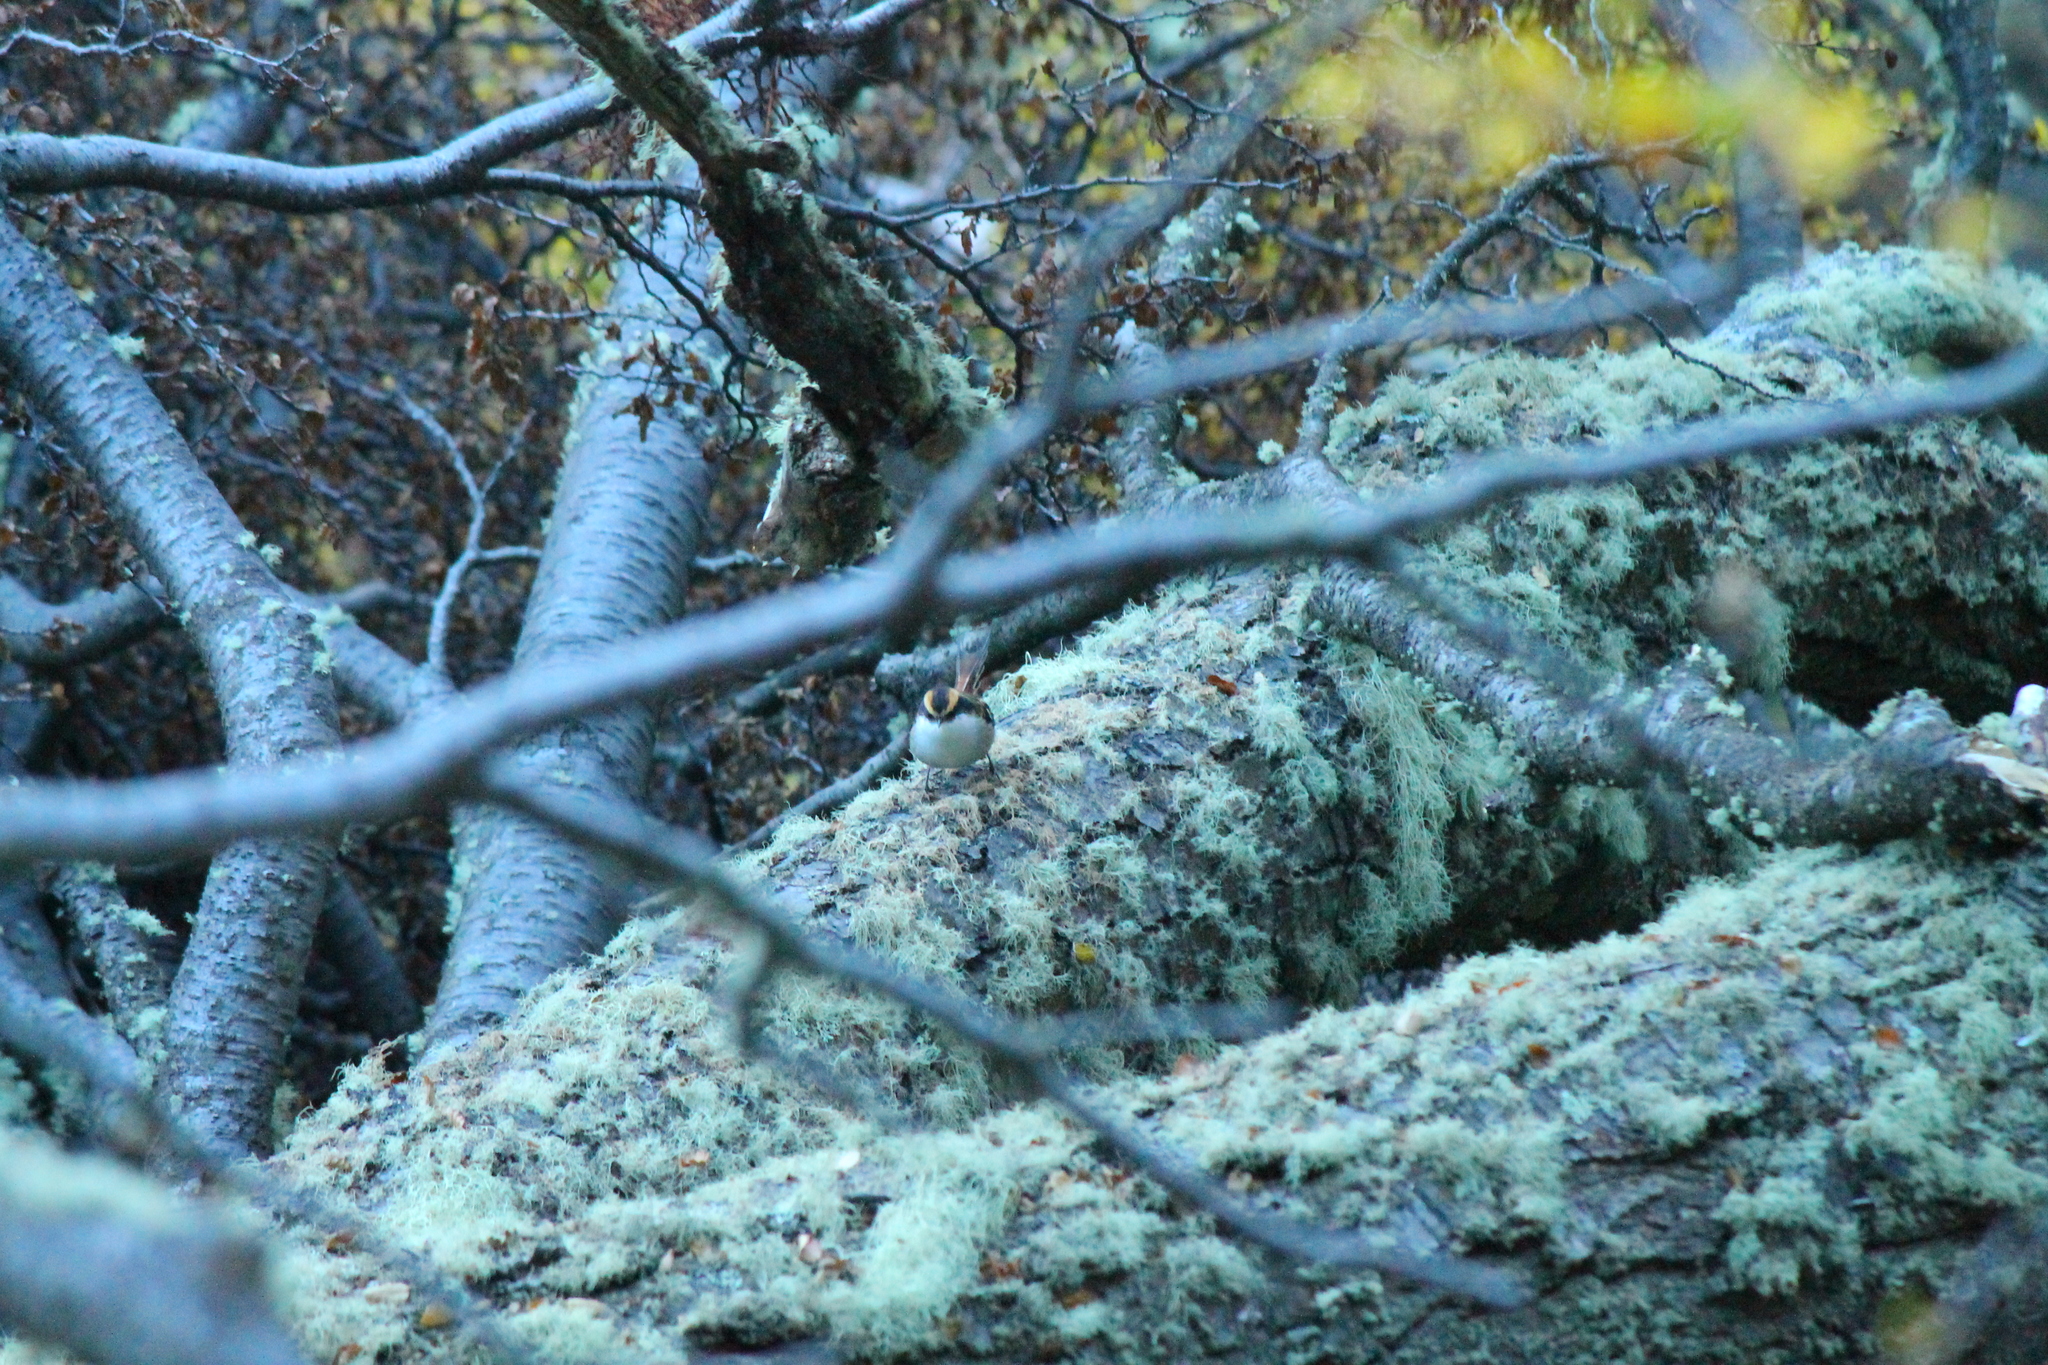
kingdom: Animalia
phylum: Chordata
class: Aves
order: Passeriformes
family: Furnariidae
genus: Aphrastura
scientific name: Aphrastura spinicauda
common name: Thorn-tailed rayadito
